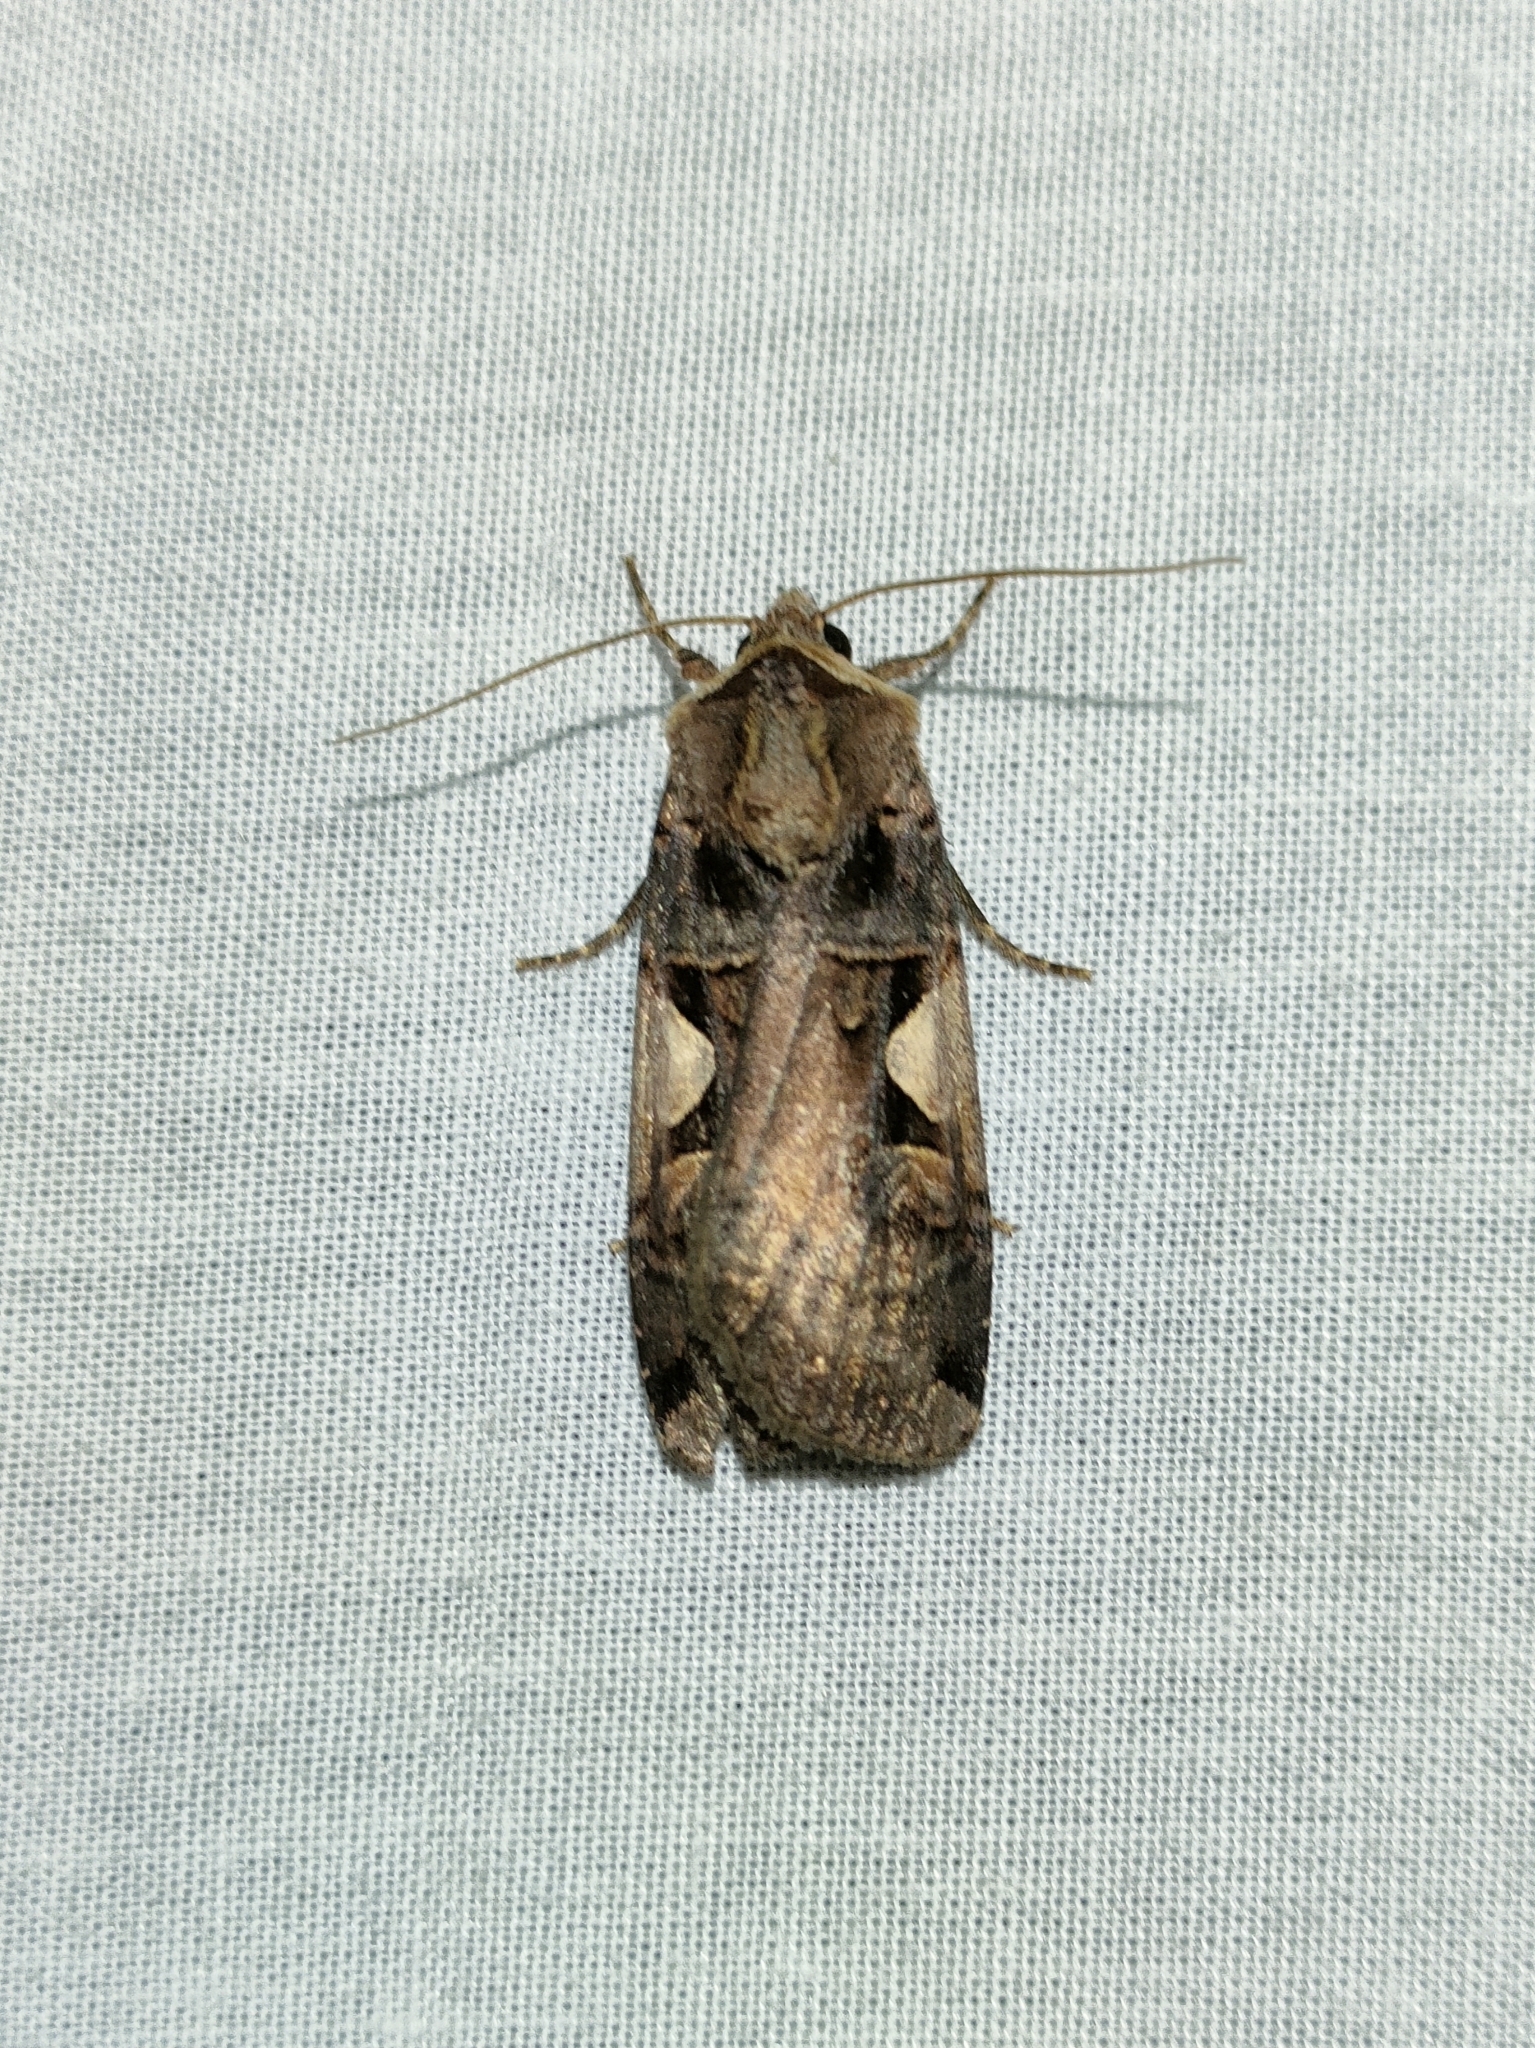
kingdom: Animalia
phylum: Arthropoda
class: Insecta
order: Lepidoptera
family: Noctuidae
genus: Xestia
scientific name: Xestia c-nigrum
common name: Setaceous hebrew character
